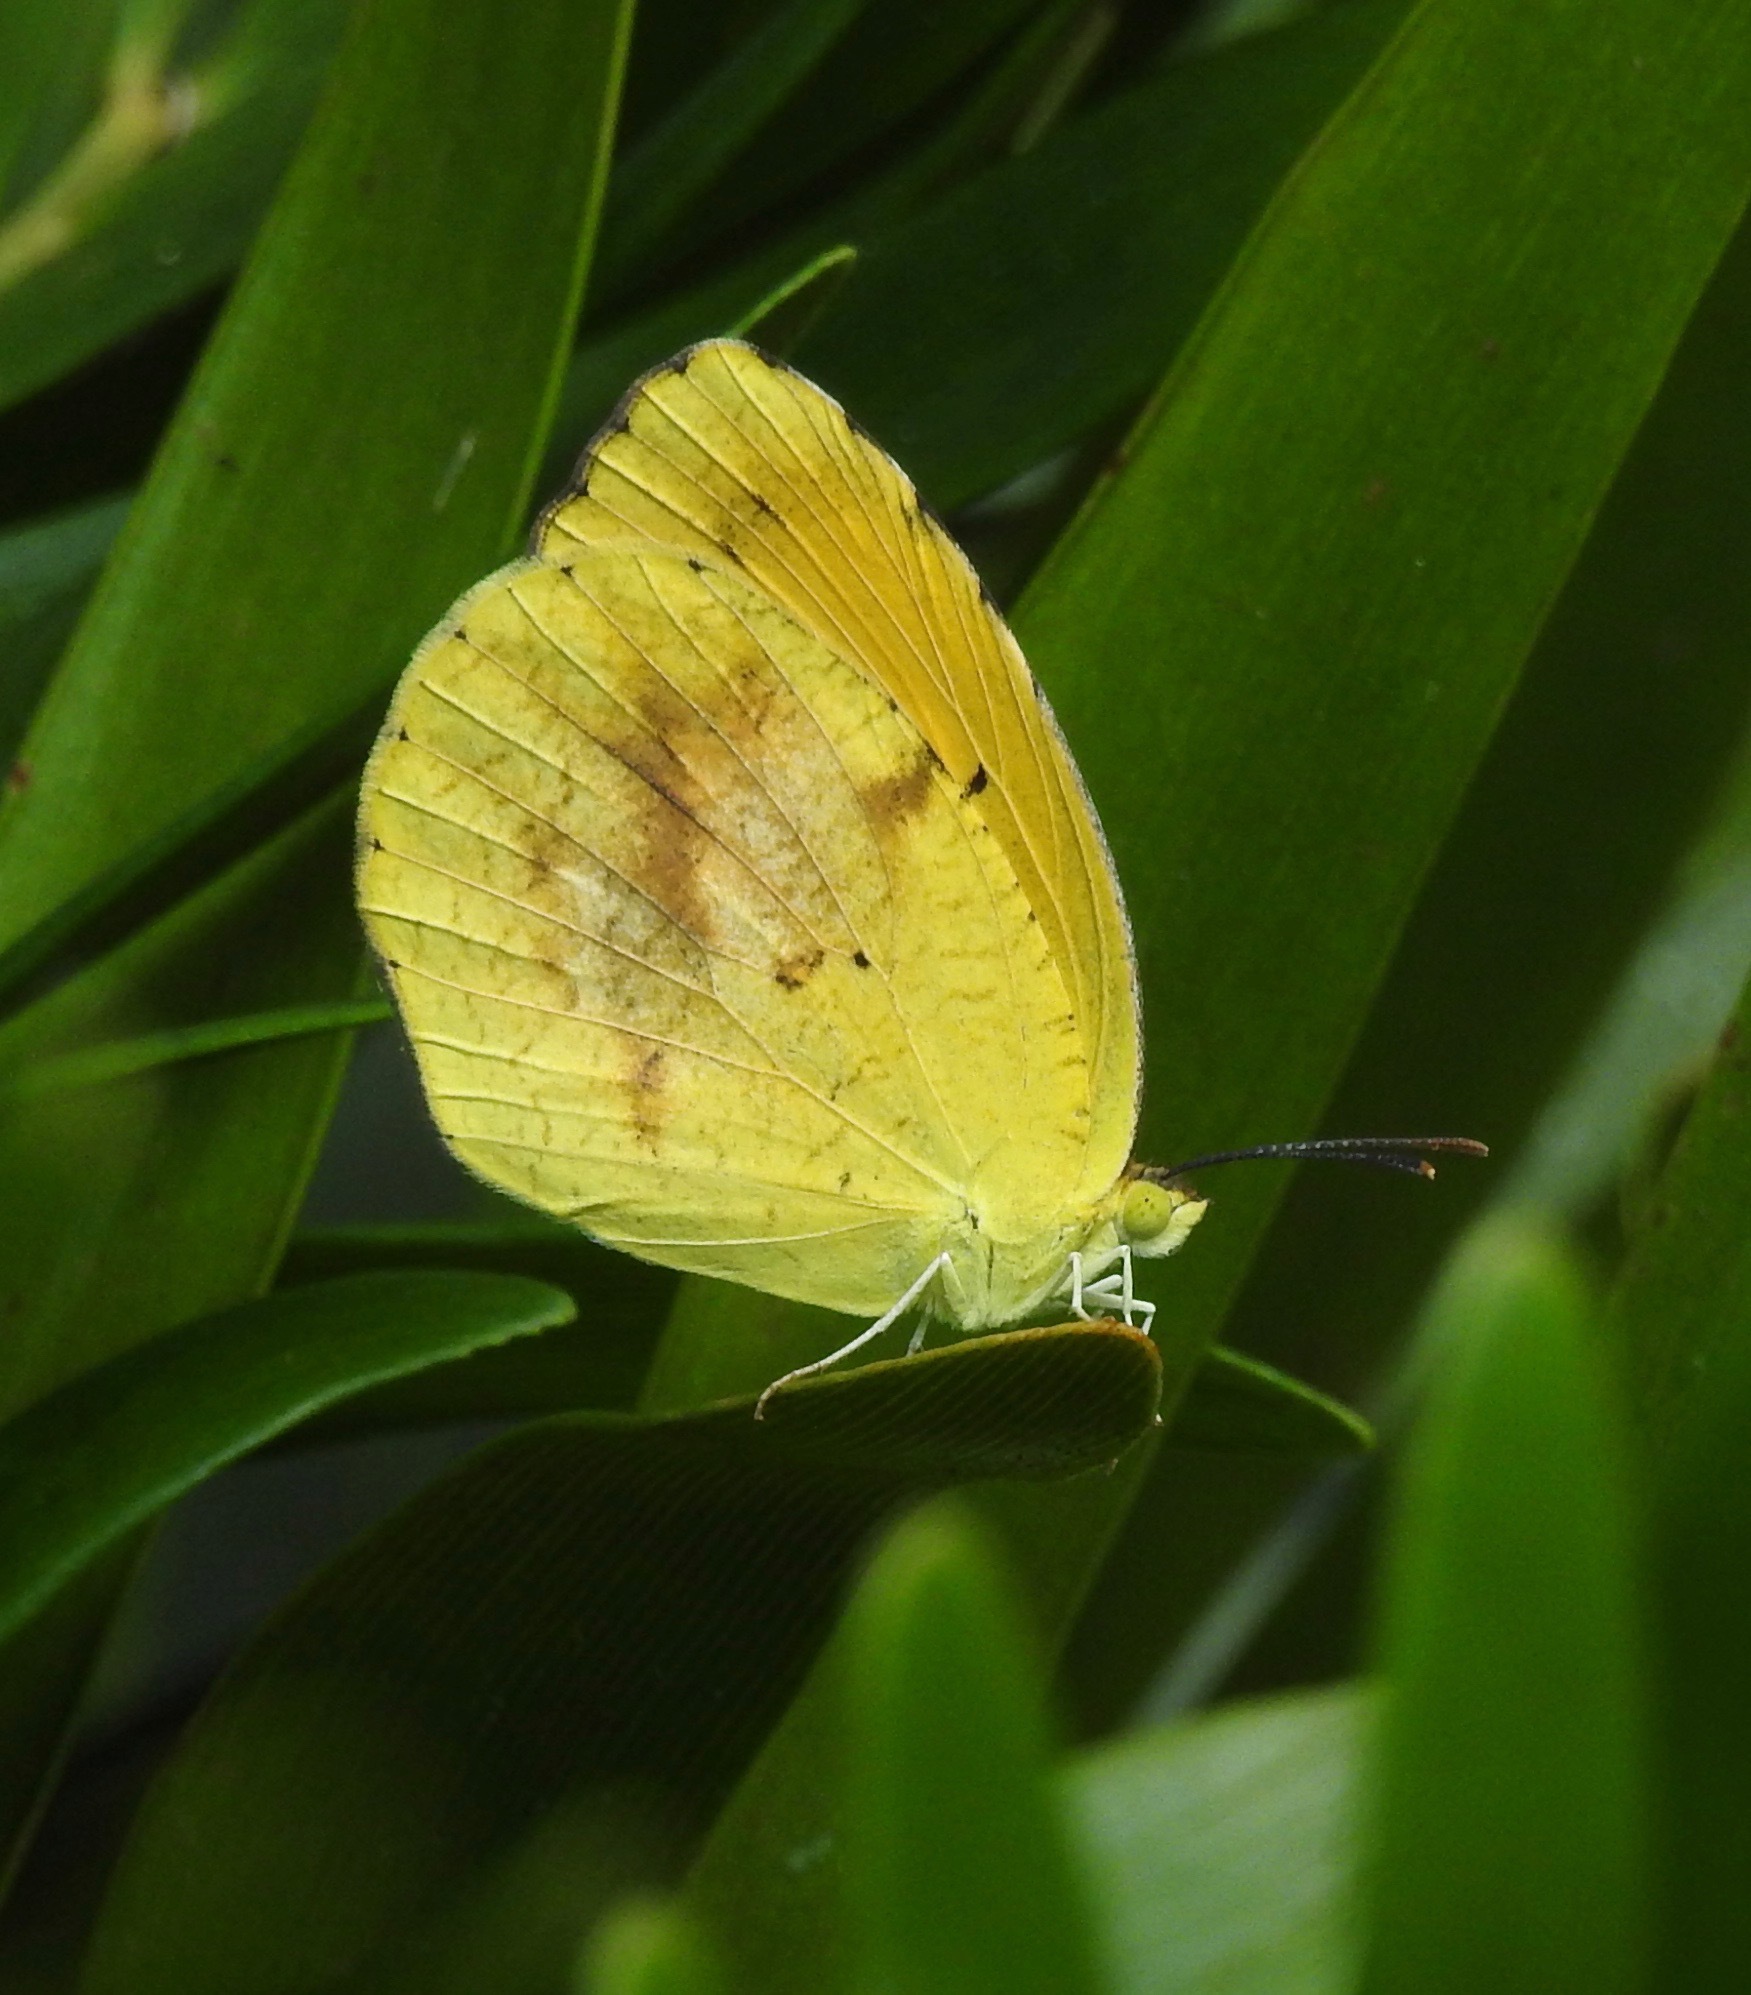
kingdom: Animalia
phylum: Arthropoda
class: Insecta
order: Lepidoptera
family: Pieridae
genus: Abaeis
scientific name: Abaeis nicippe
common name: Sleepy orange
